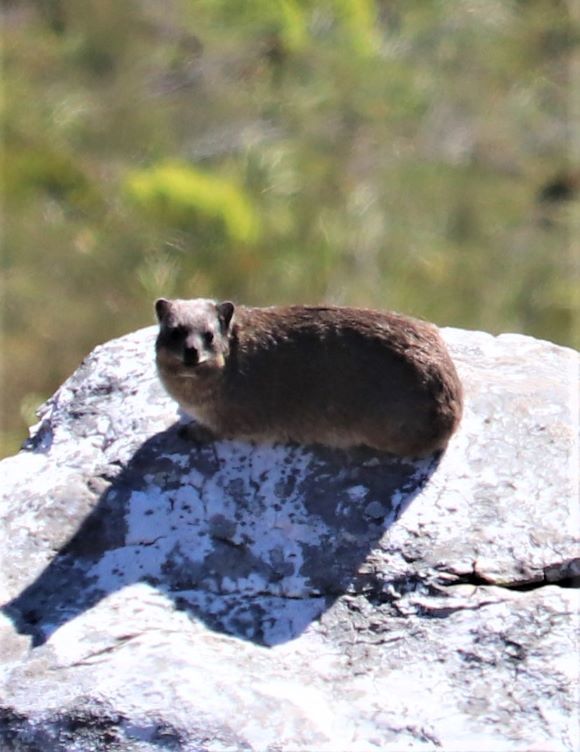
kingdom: Animalia
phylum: Chordata
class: Mammalia
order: Hyracoidea
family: Procaviidae
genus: Procavia
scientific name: Procavia capensis
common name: Rock hyrax
